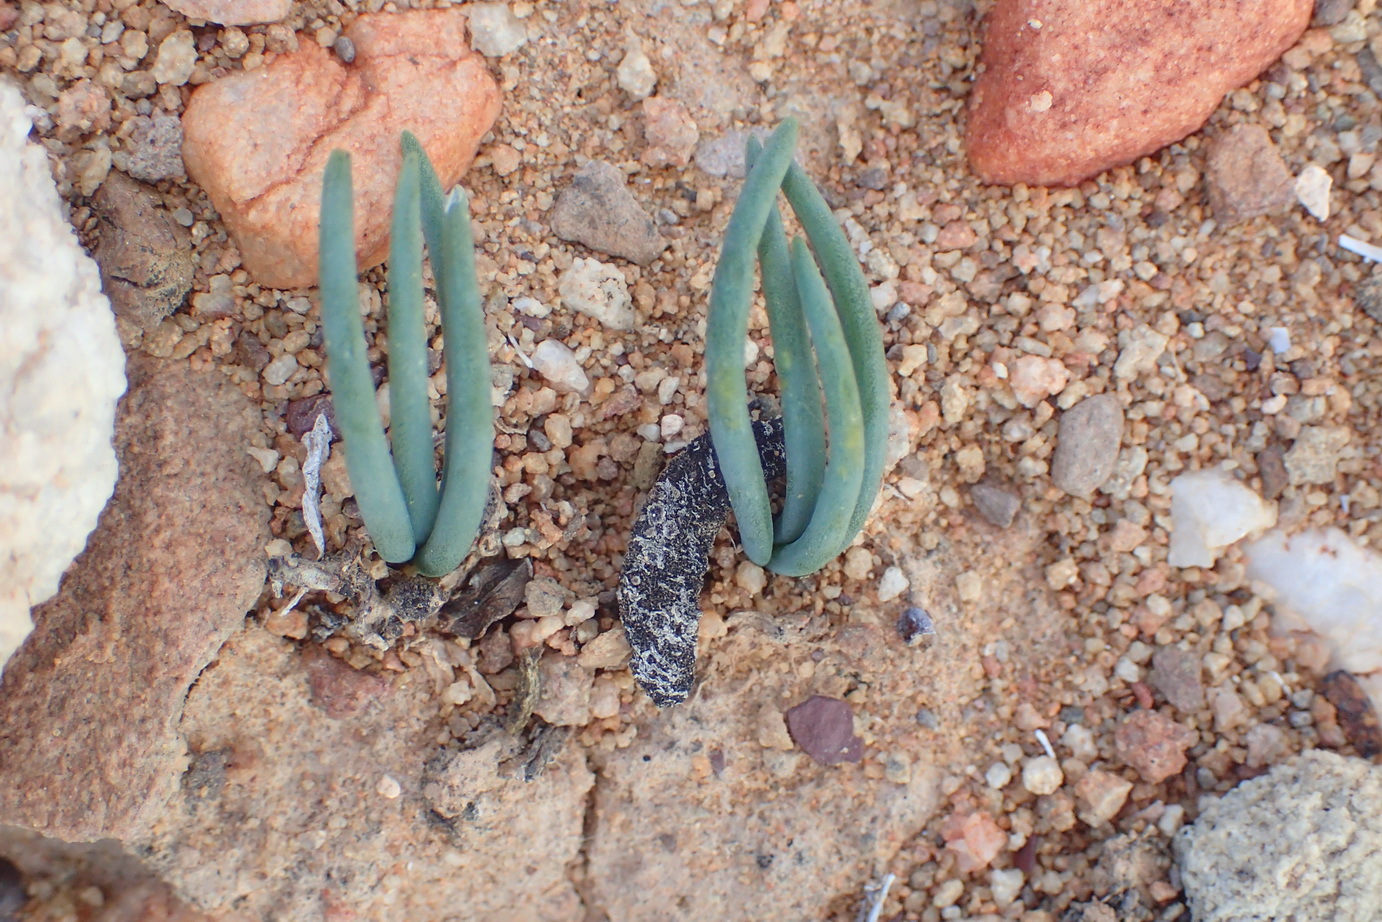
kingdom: Plantae
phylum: Tracheophyta
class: Liliopsida
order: Asparagales
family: Asparagaceae
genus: Ornithogalum
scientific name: Ornithogalum multifolium
